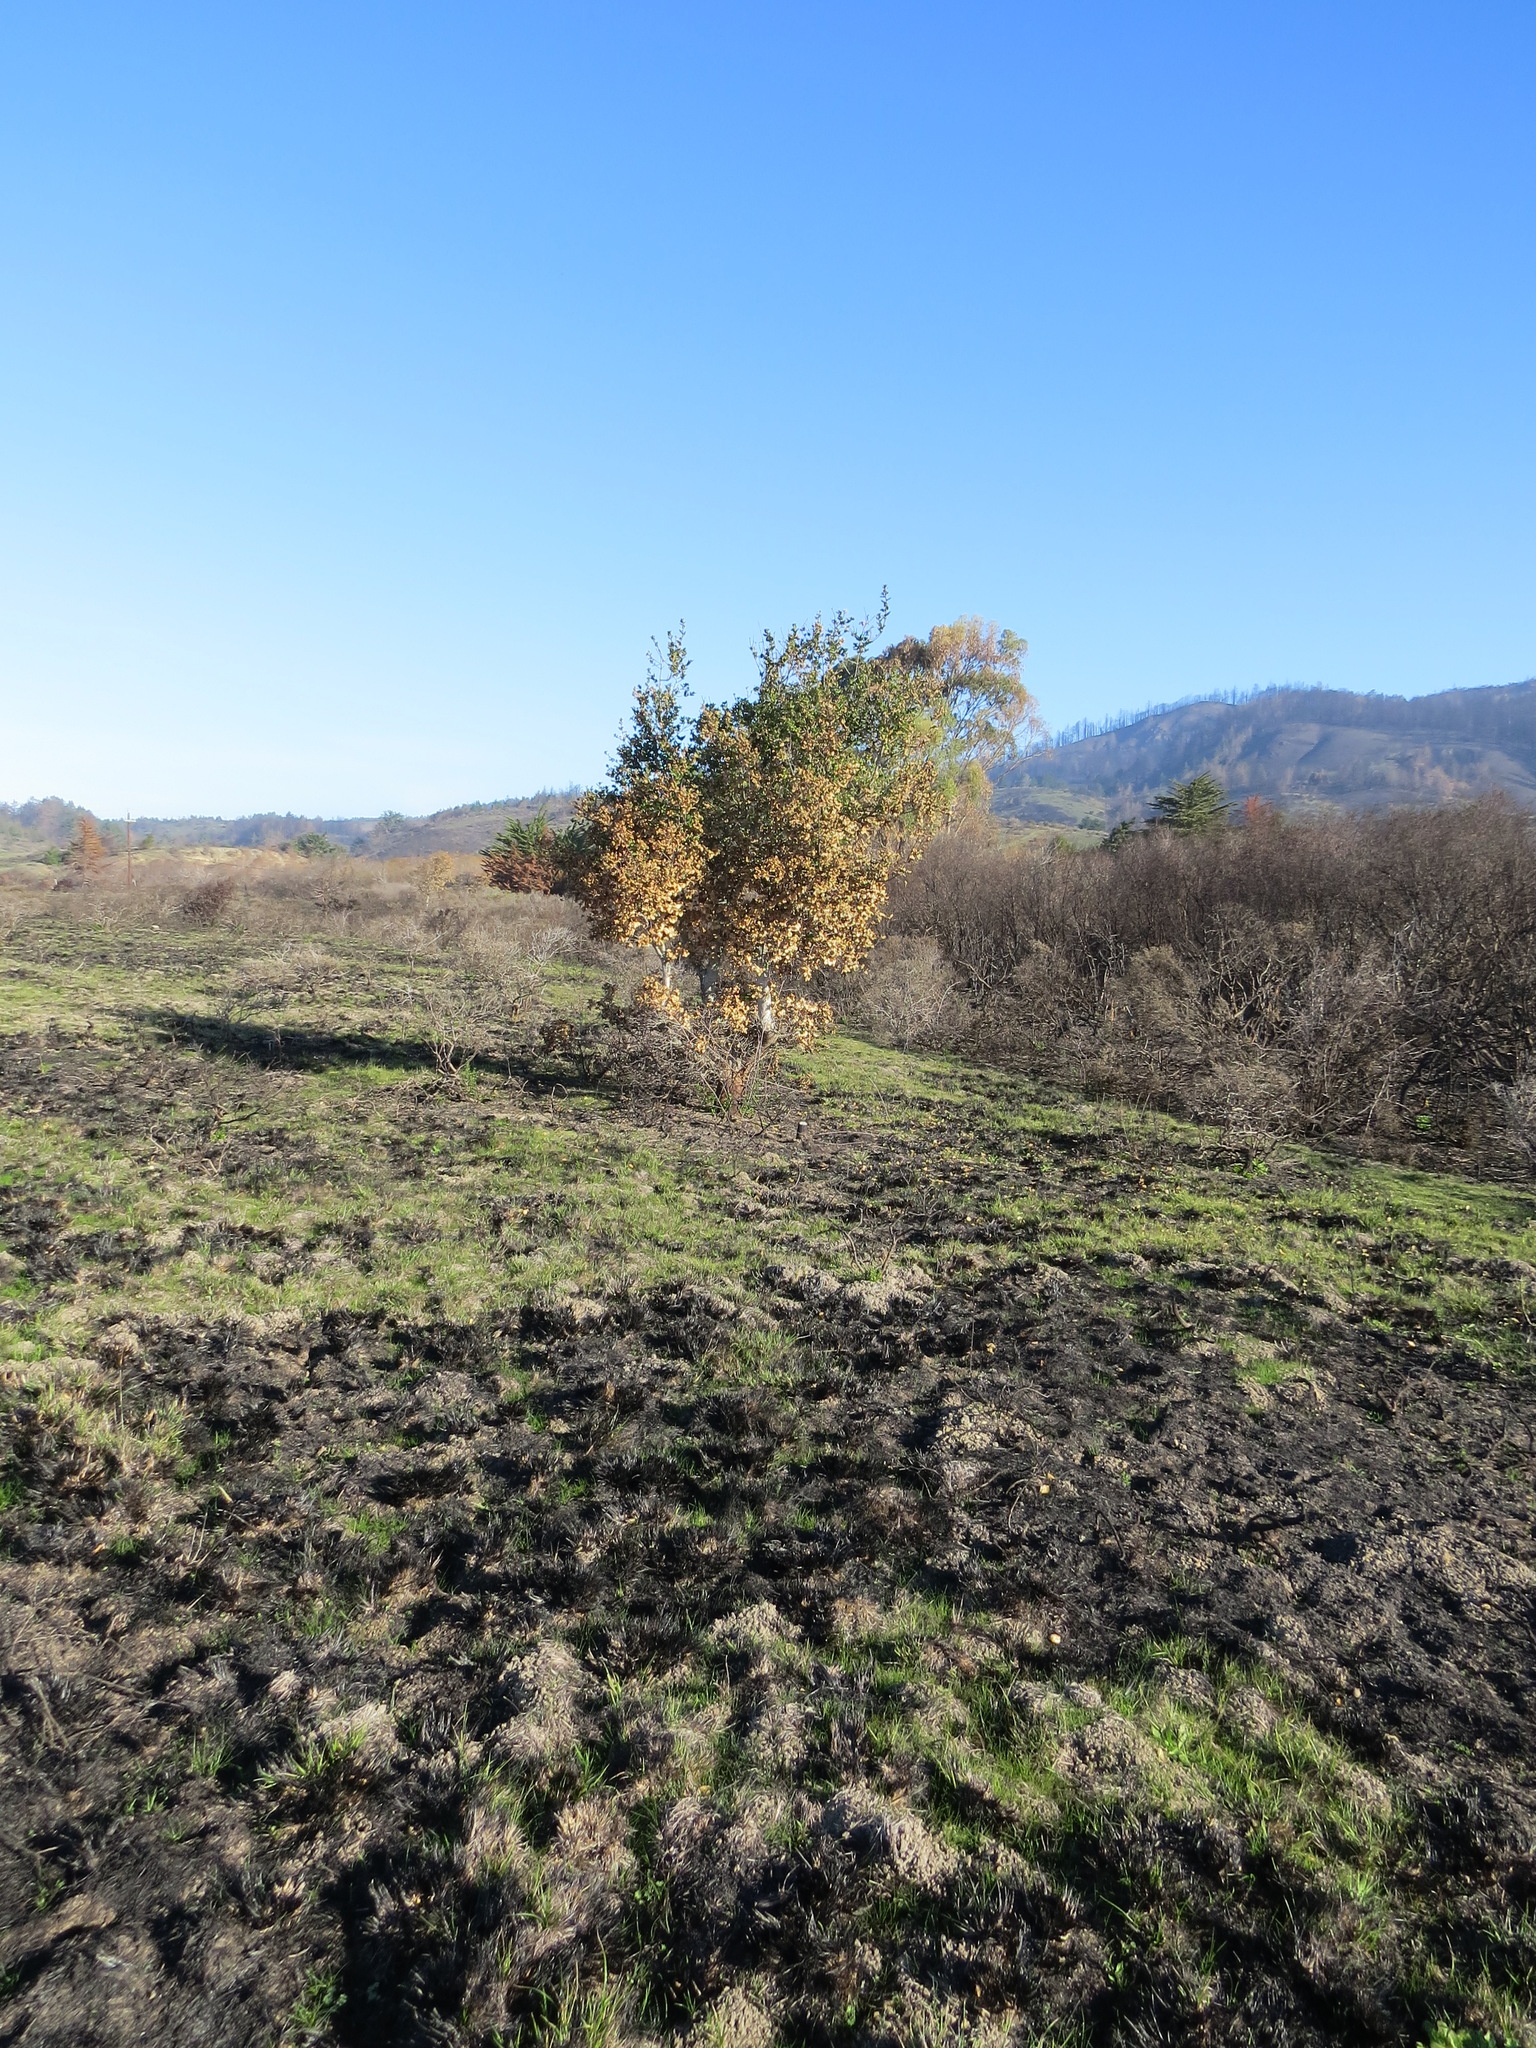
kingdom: Plantae
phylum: Tracheophyta
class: Magnoliopsida
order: Fagales
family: Fagaceae
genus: Quercus
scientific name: Quercus agrifolia
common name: California live oak
